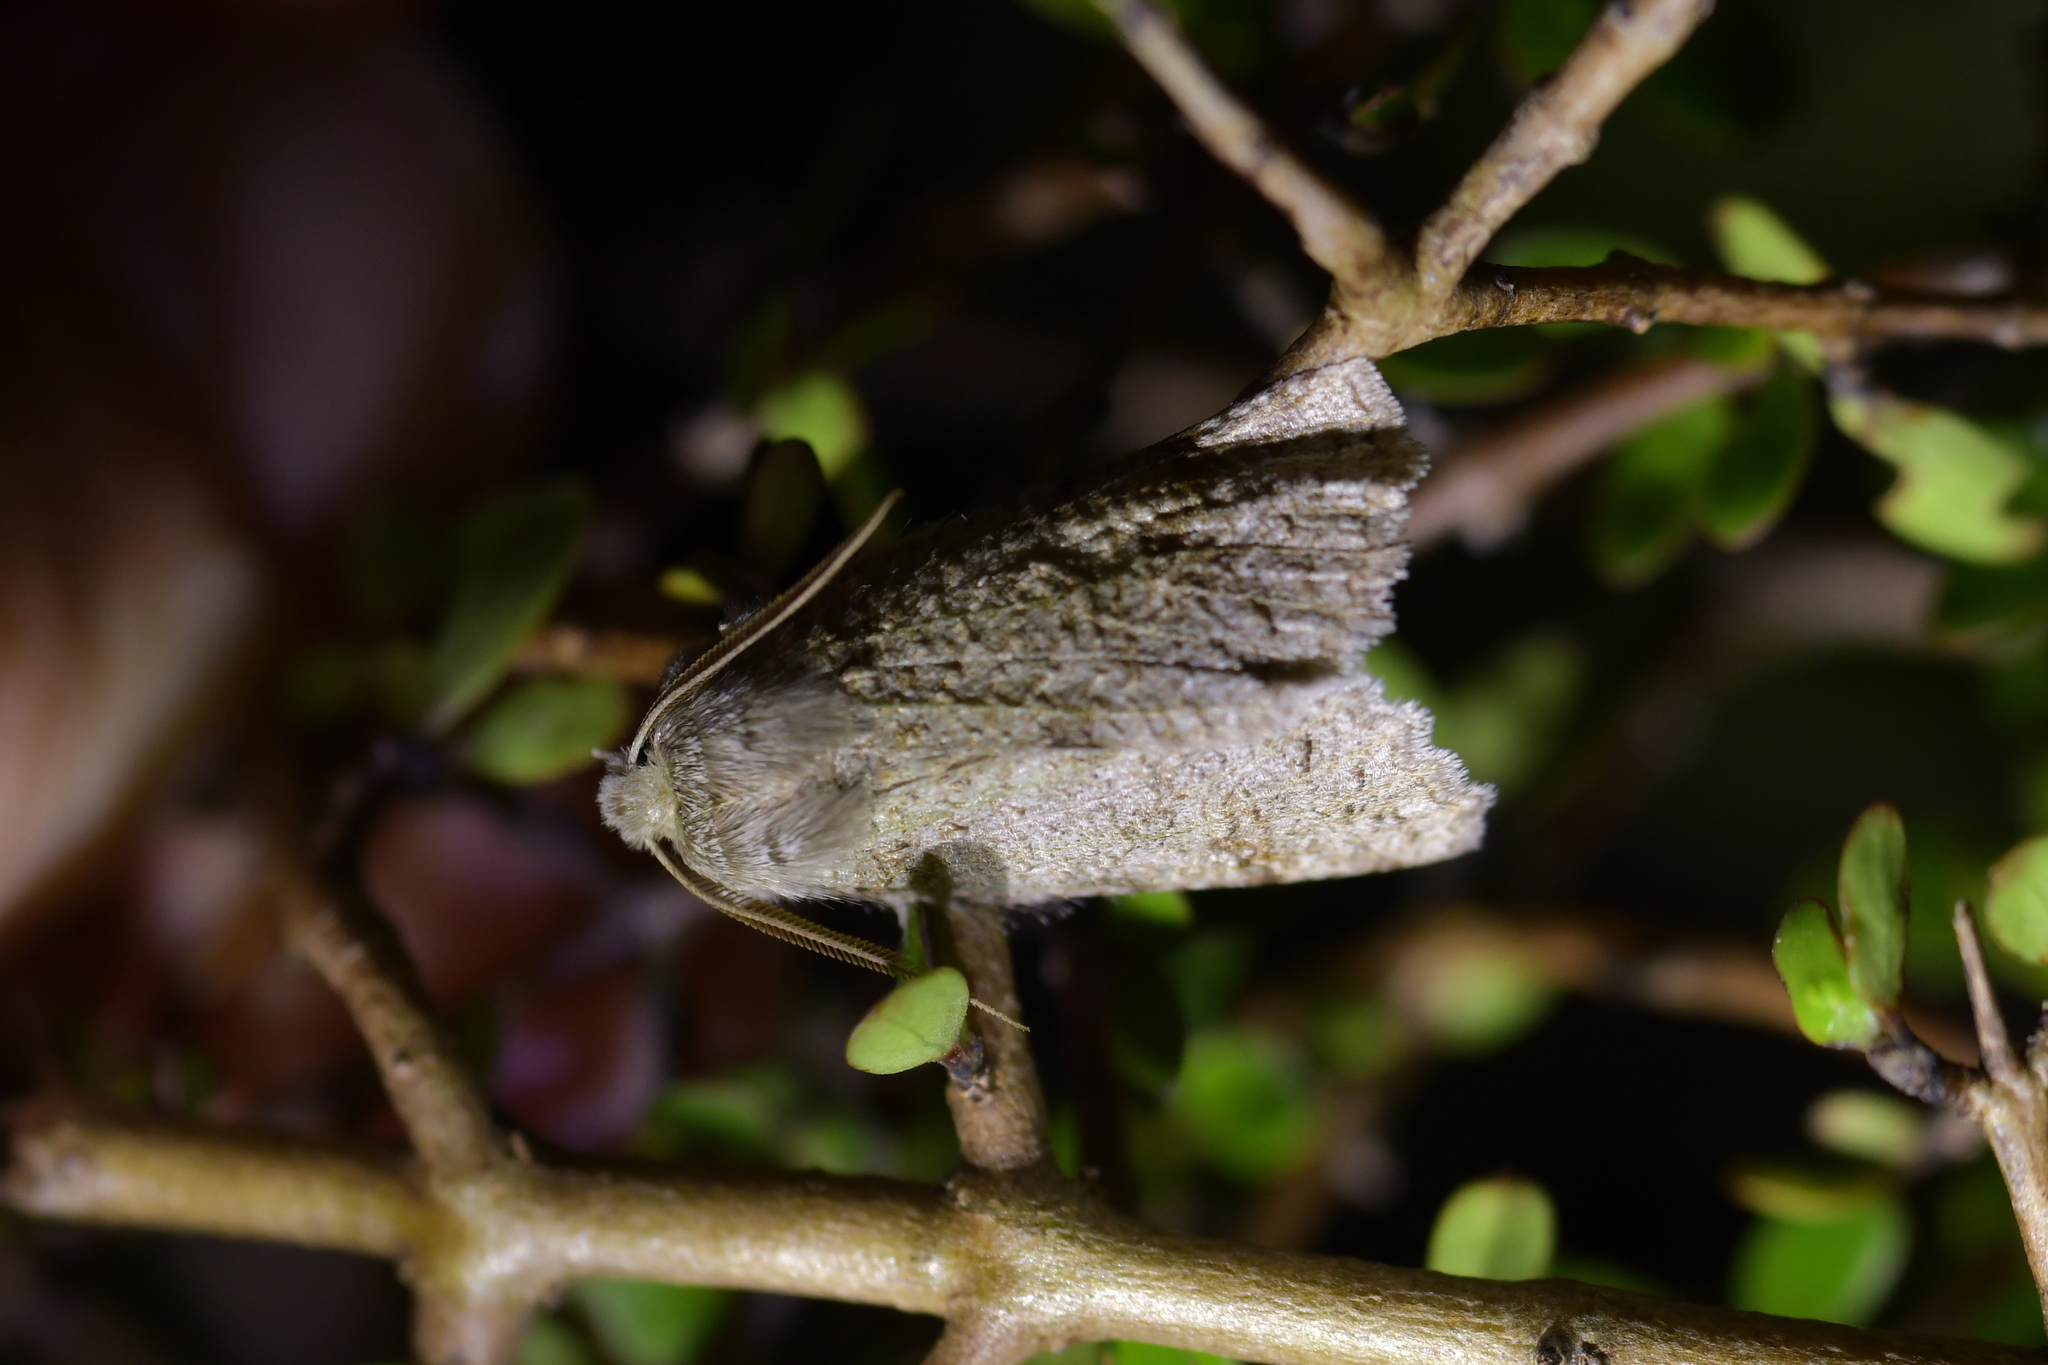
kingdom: Animalia
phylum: Arthropoda
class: Insecta
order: Lepidoptera
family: Geometridae
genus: Declana
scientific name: Declana floccosa
